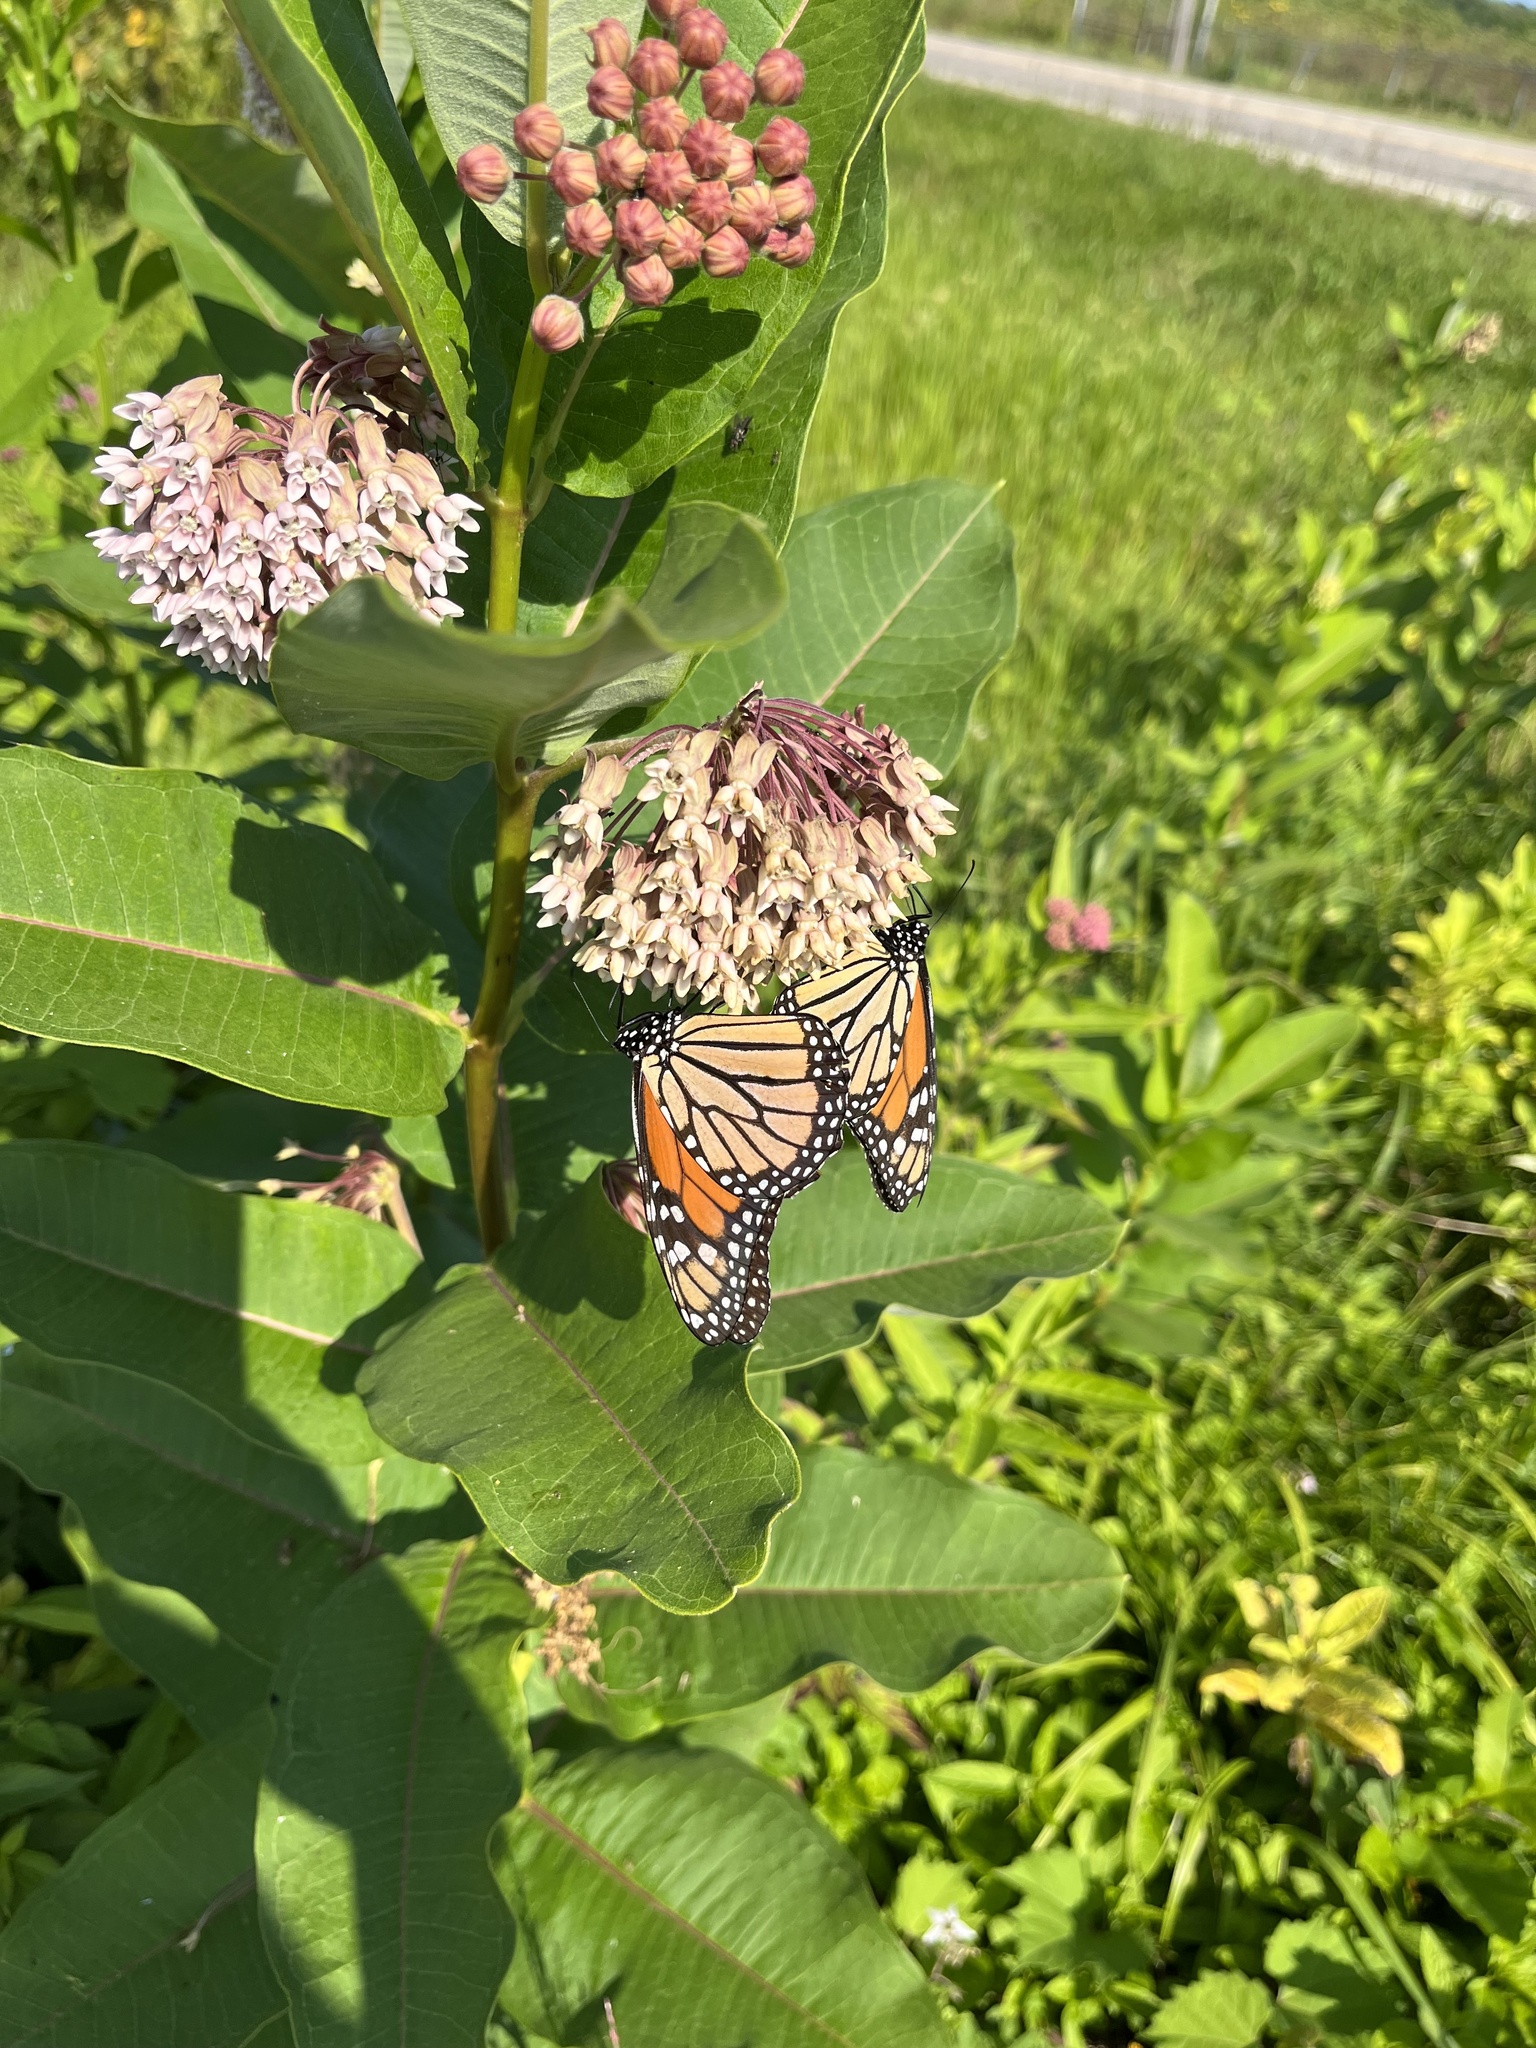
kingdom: Animalia
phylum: Arthropoda
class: Insecta
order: Lepidoptera
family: Nymphalidae
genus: Danaus
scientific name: Danaus plexippus
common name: Monarch
